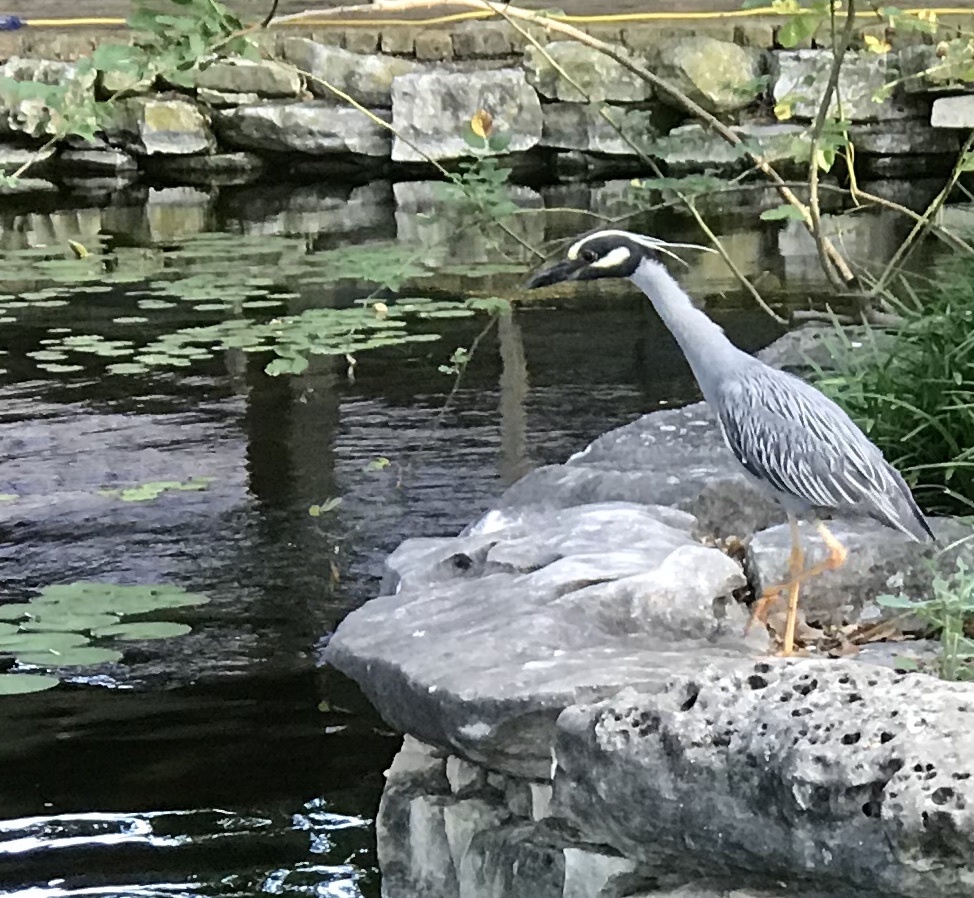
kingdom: Animalia
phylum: Chordata
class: Aves
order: Pelecaniformes
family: Ardeidae
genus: Nyctanassa
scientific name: Nyctanassa violacea
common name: Yellow-crowned night heron
